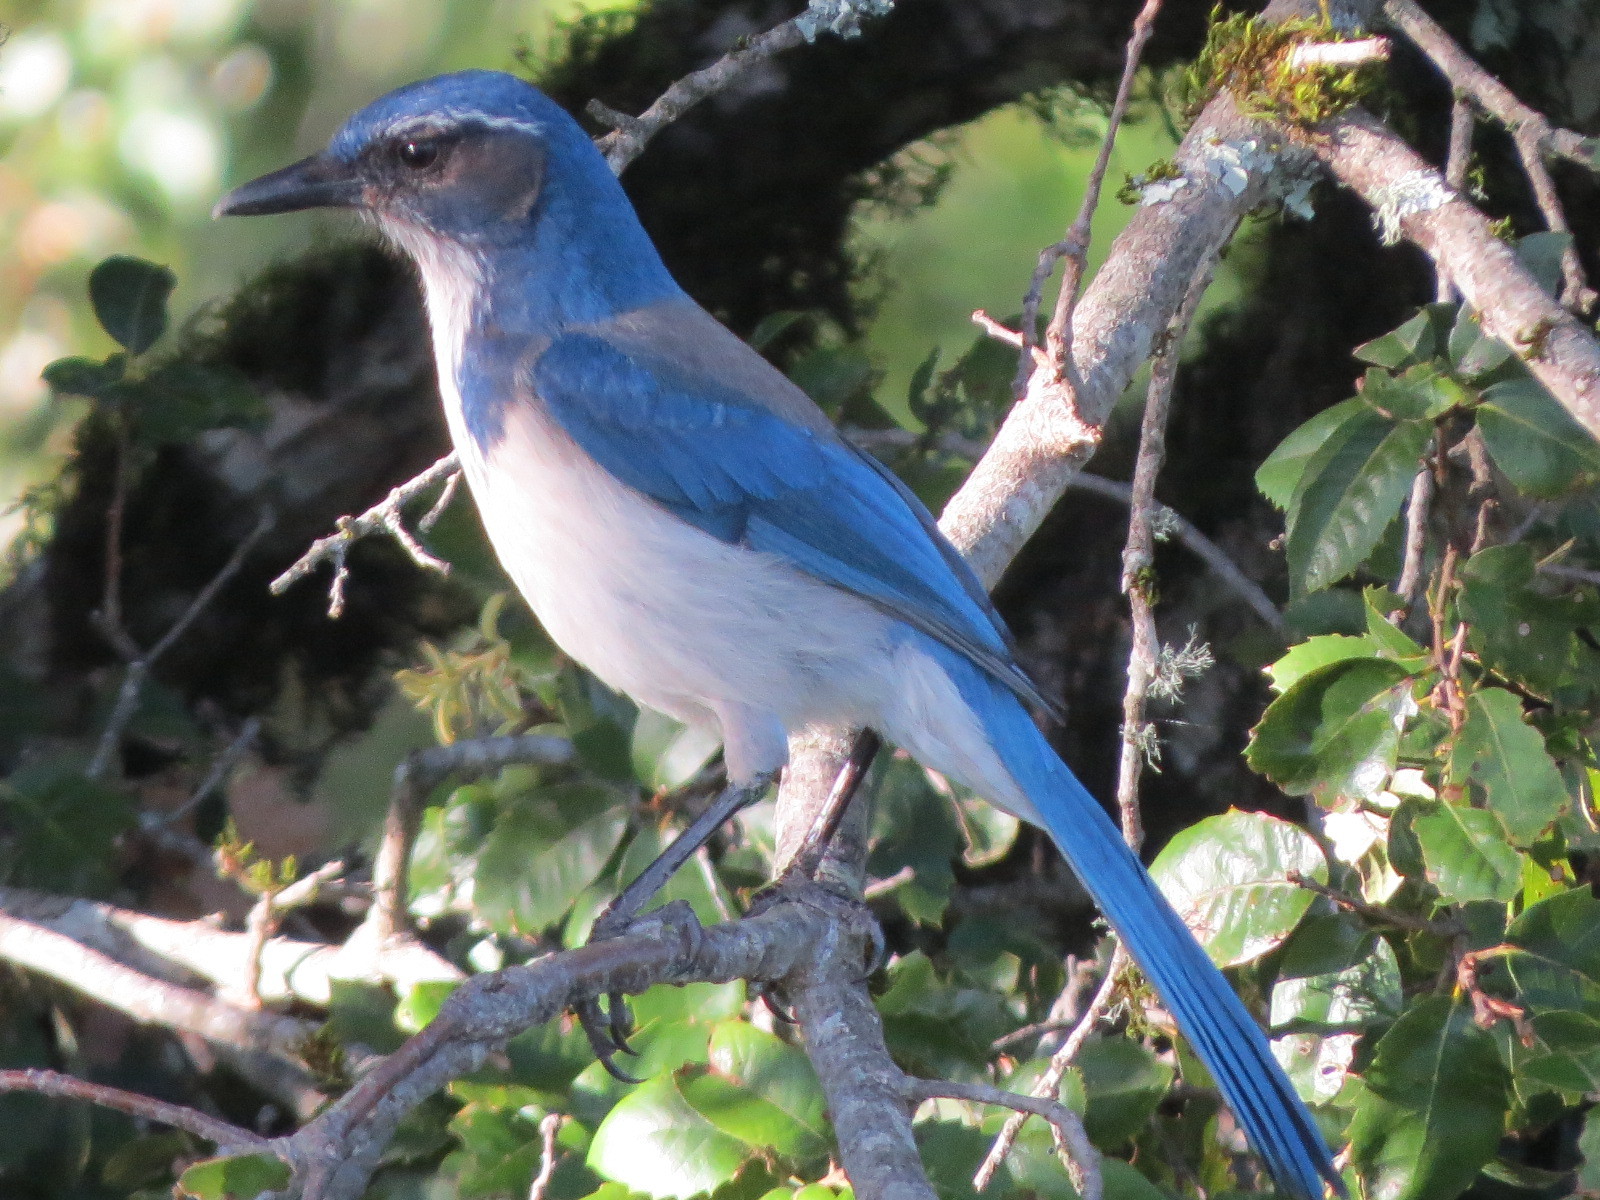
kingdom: Animalia
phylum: Chordata
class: Aves
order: Passeriformes
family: Corvidae
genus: Aphelocoma
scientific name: Aphelocoma californica
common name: California scrub-jay
